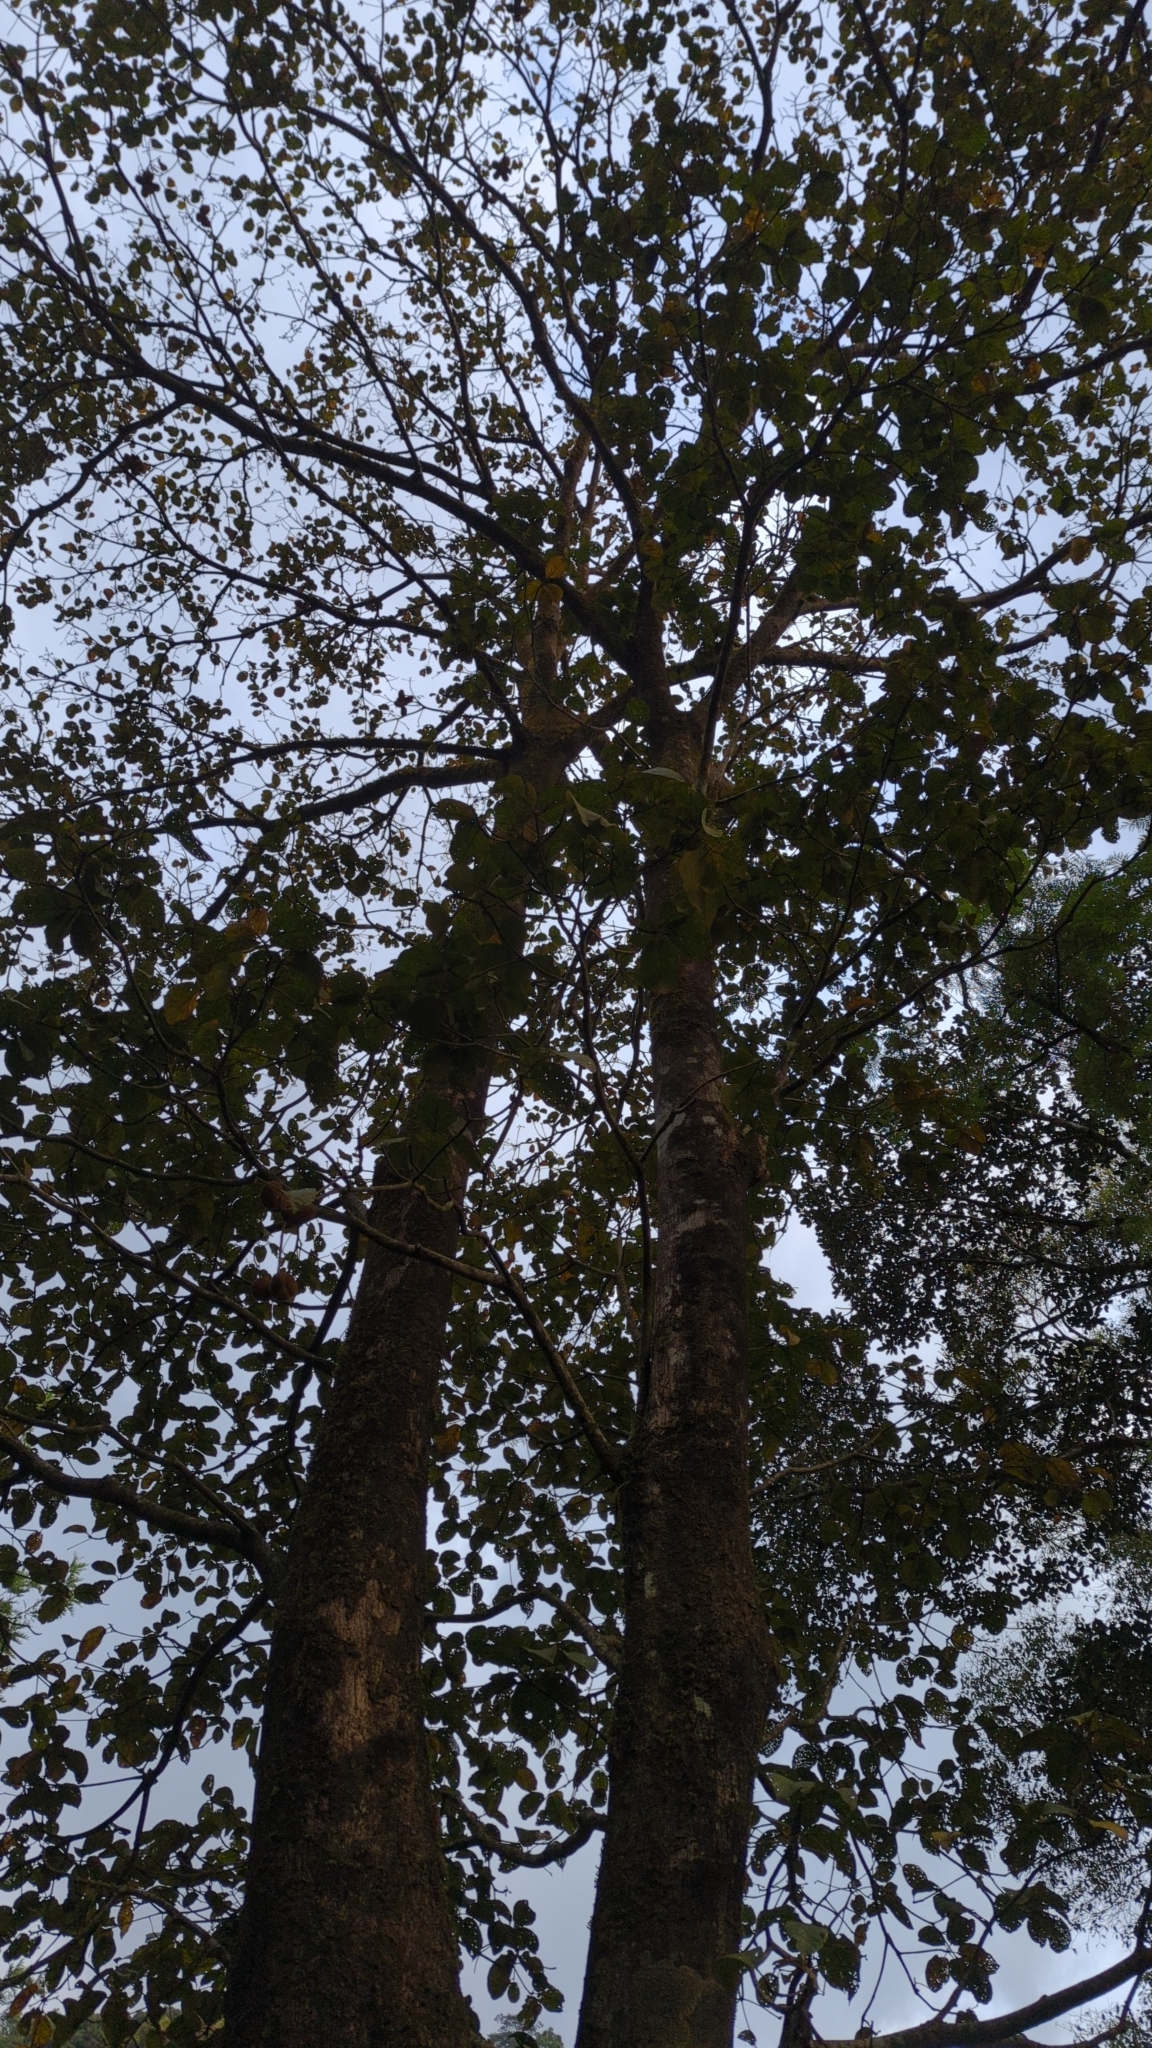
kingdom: Plantae
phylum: Tracheophyta
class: Magnoliopsida
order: Malvales
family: Malvaceae
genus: Sterculia
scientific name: Sterculia guttata
